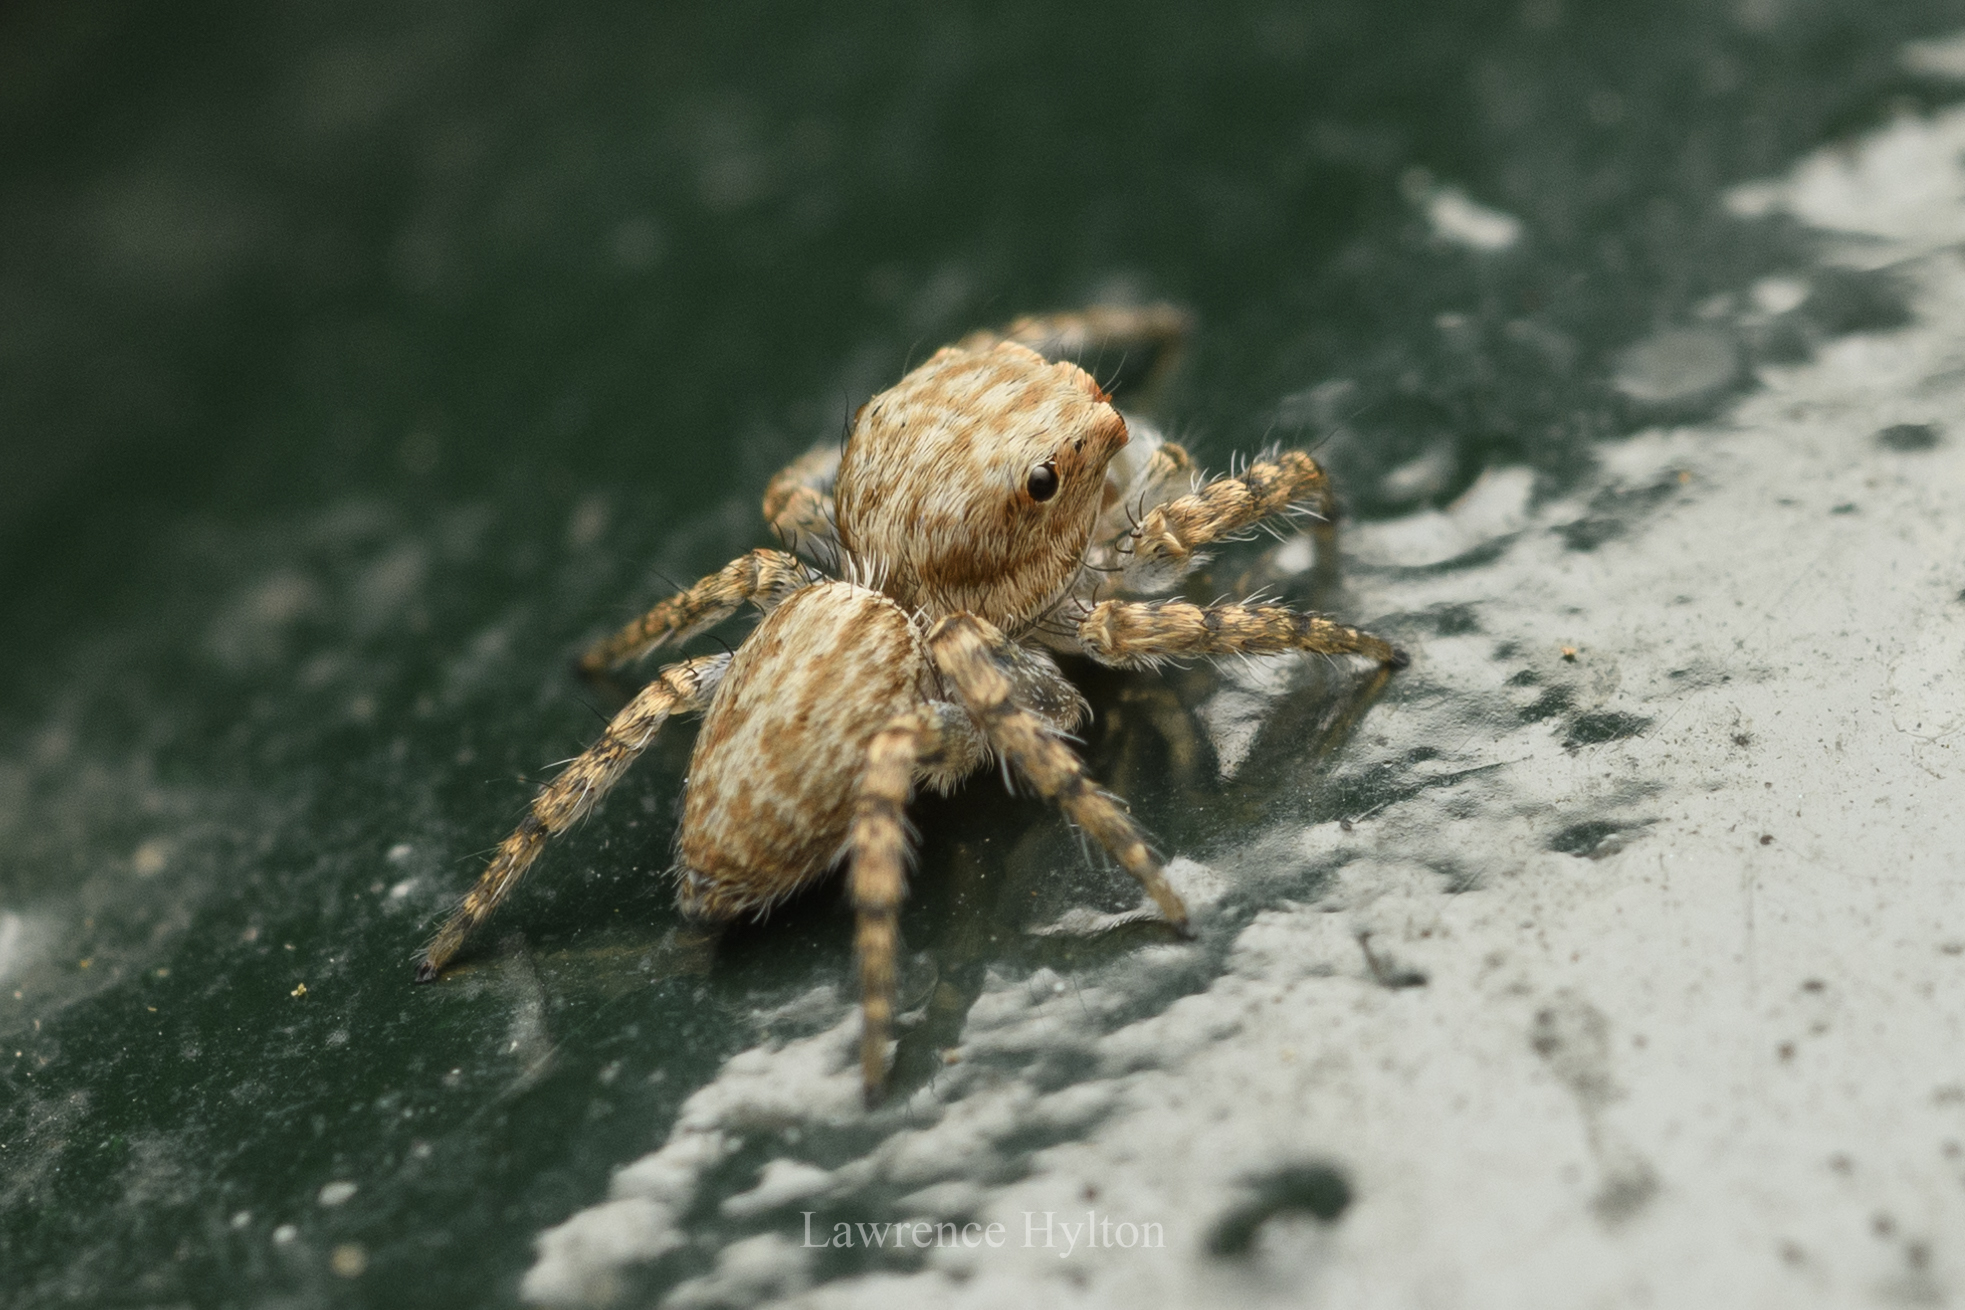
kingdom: Animalia
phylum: Arthropoda
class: Arachnida
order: Araneae
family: Salticidae
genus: Cytaea
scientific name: Cytaea maoming
